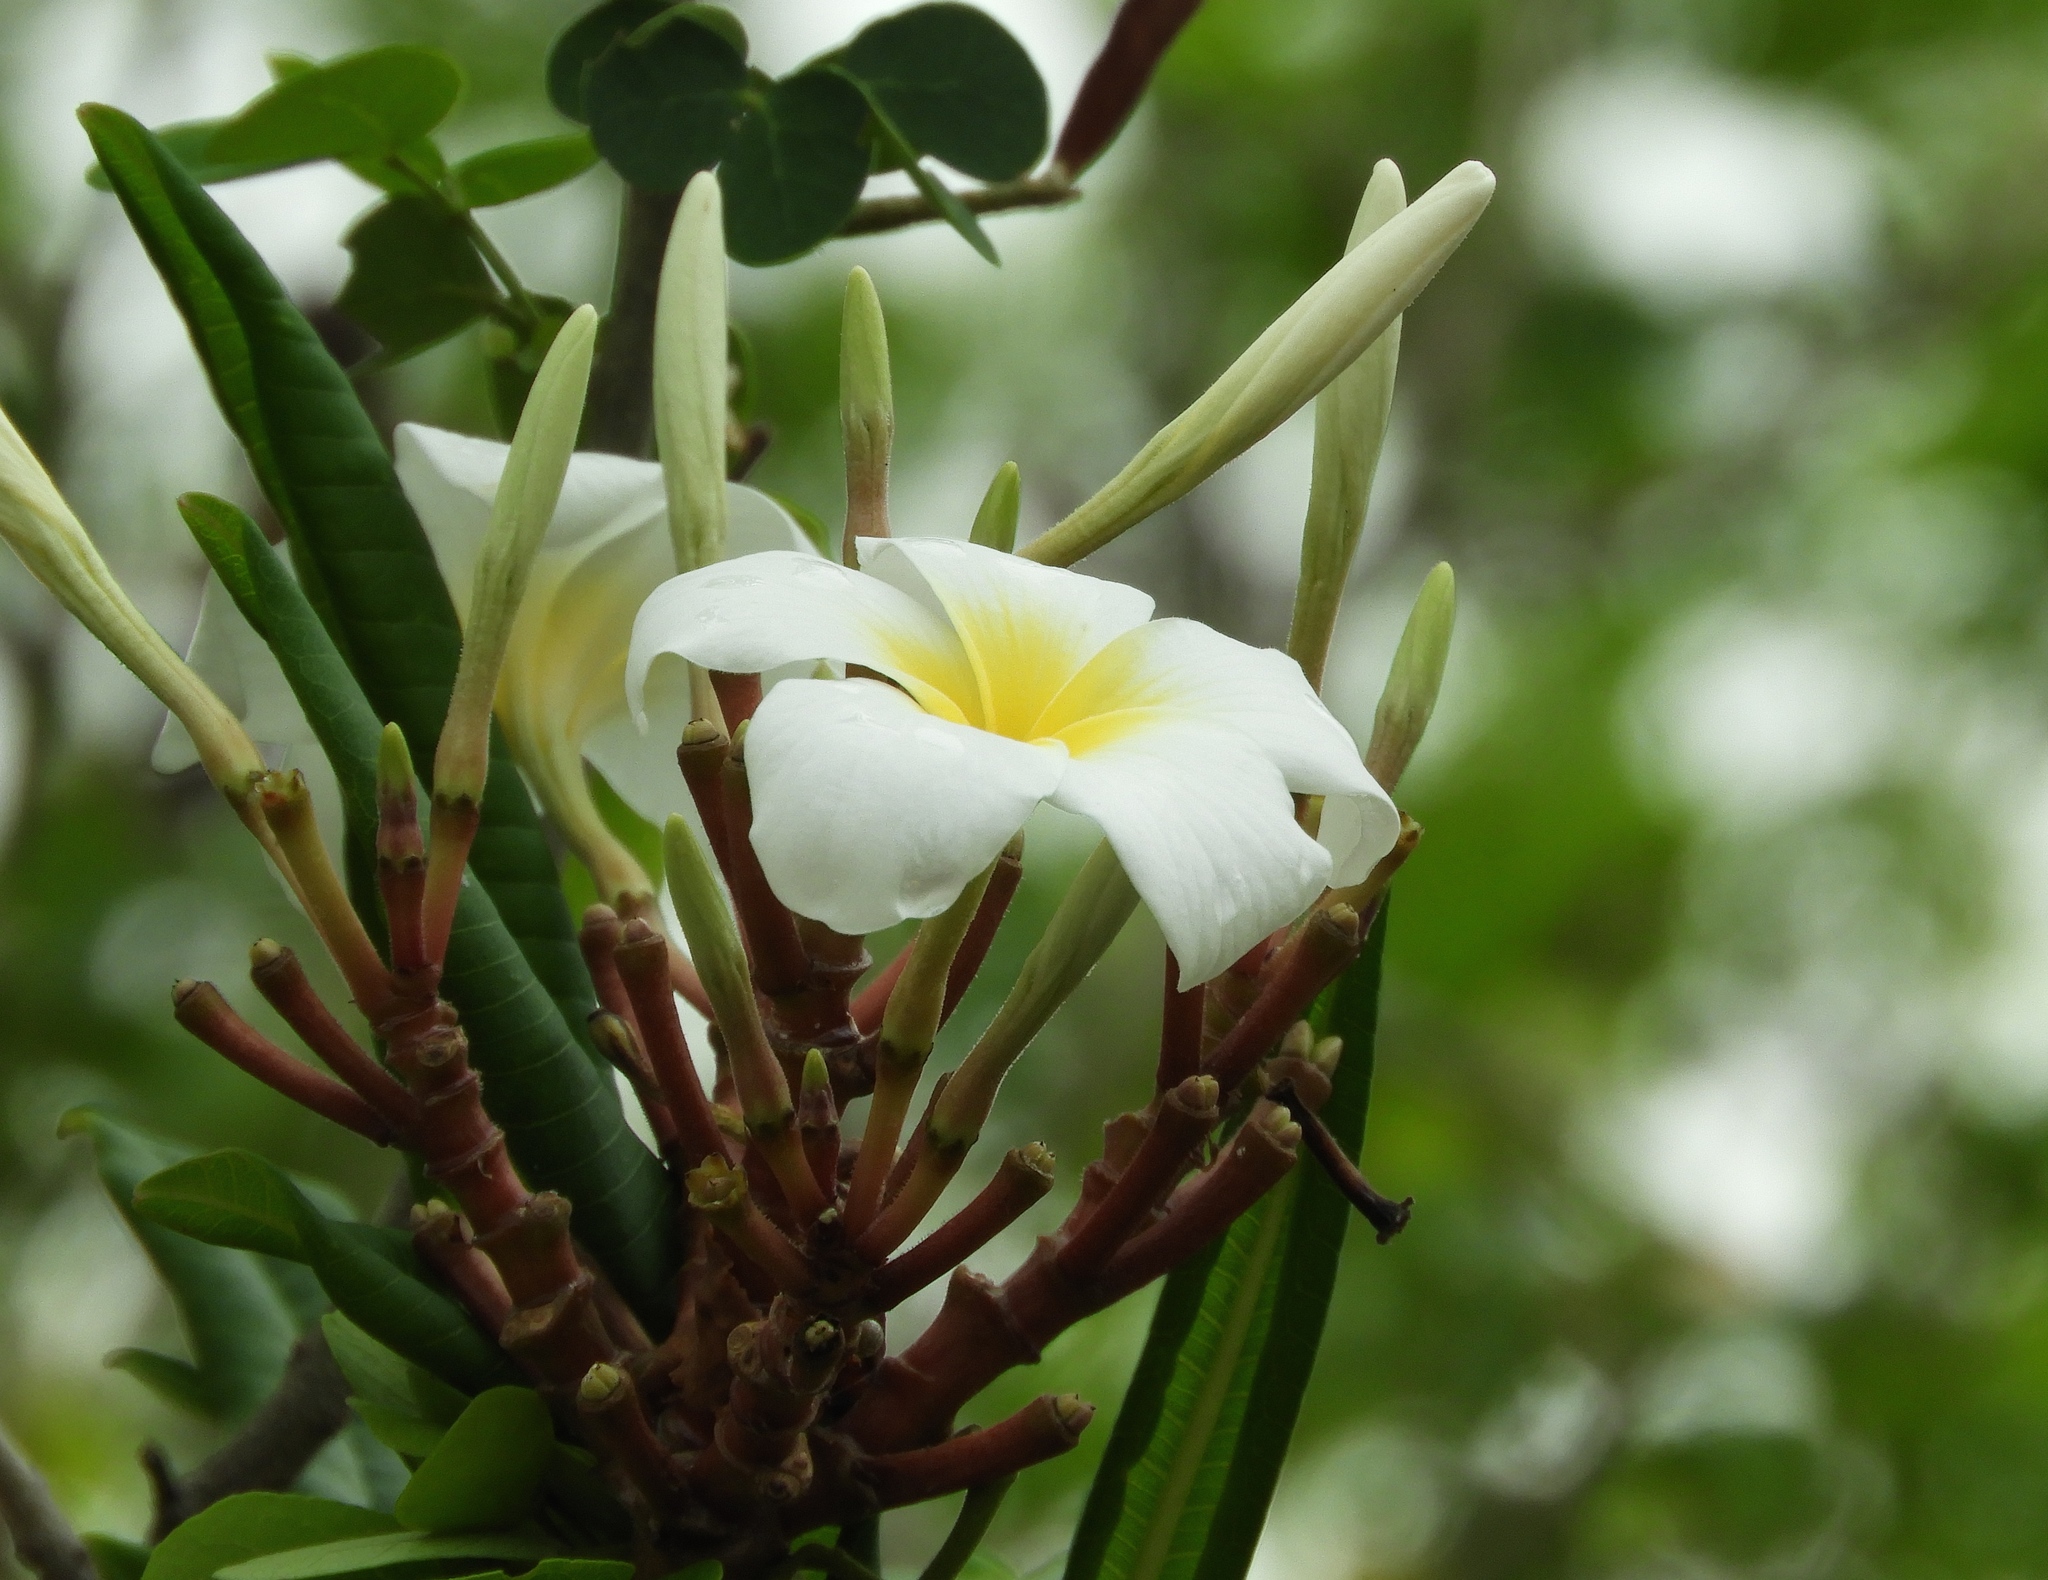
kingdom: Plantae
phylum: Tracheophyta
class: Magnoliopsida
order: Gentianales
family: Apocynaceae
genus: Plumeria
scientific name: Plumeria rubra
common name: Pagoda-tree
